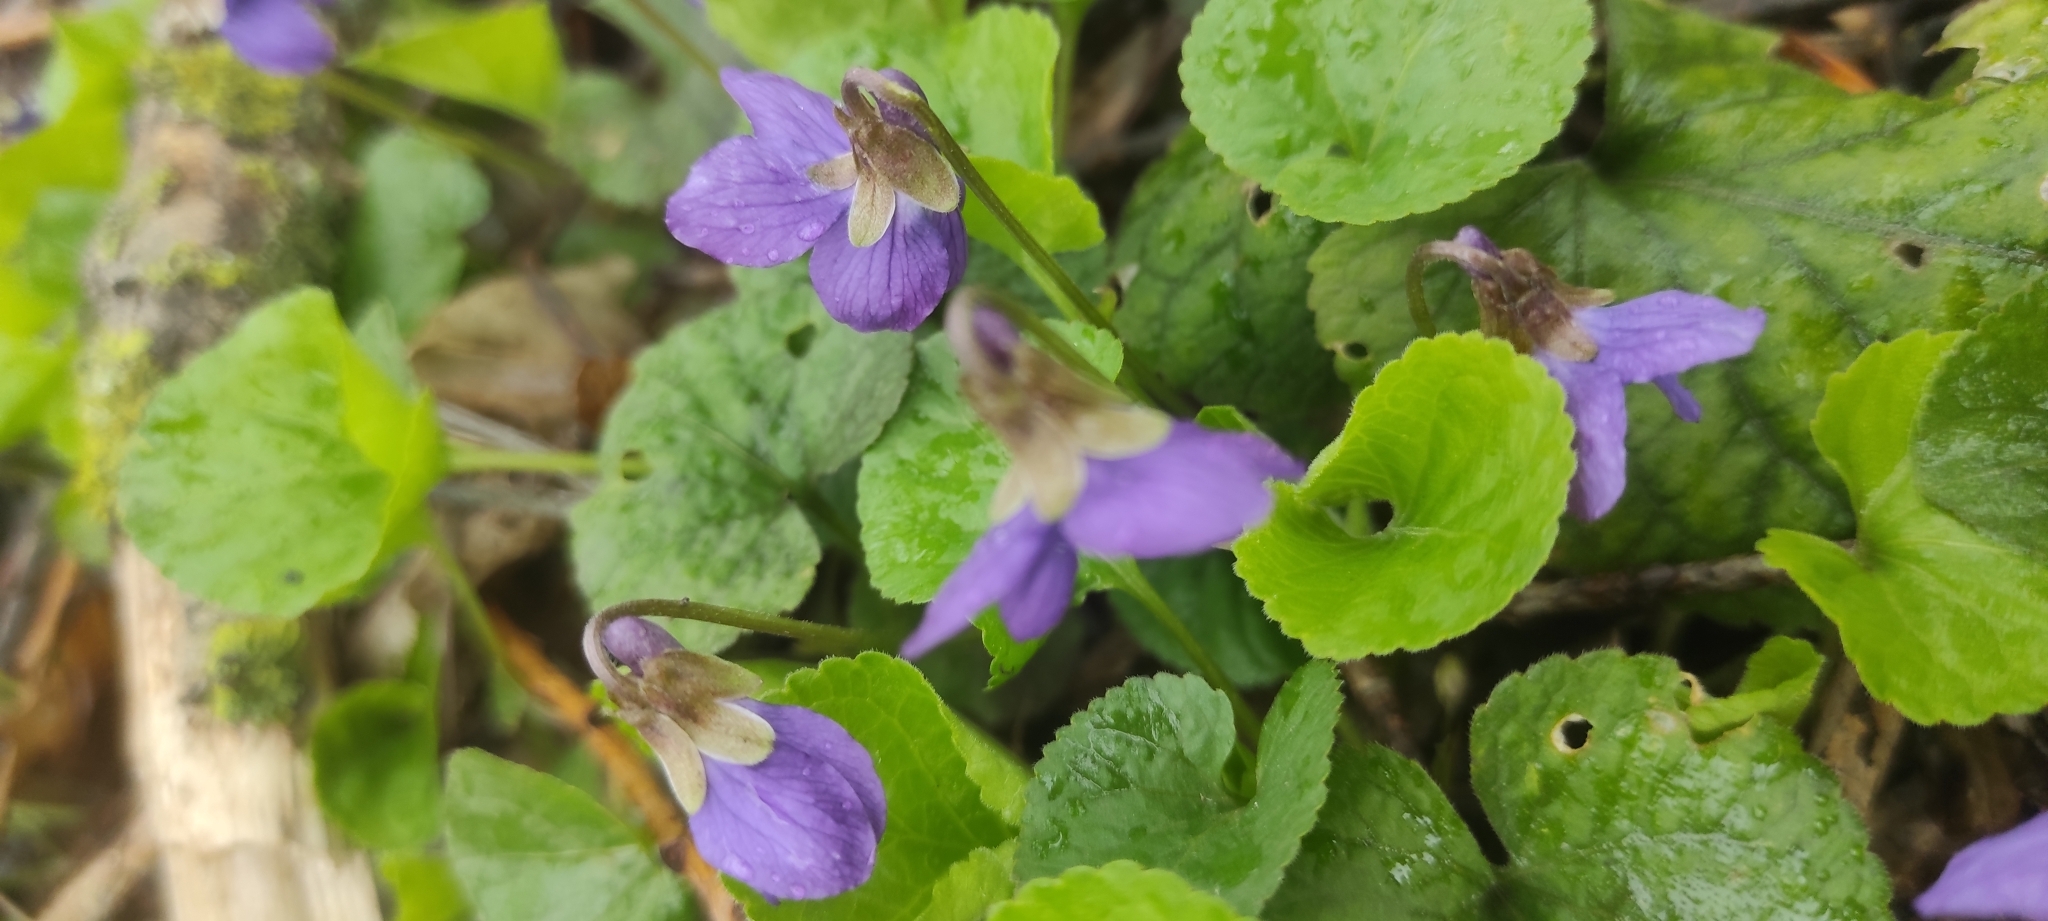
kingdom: Plantae
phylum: Tracheophyta
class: Magnoliopsida
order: Malpighiales
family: Violaceae
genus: Viola
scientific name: Viola odorata
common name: Sweet violet
